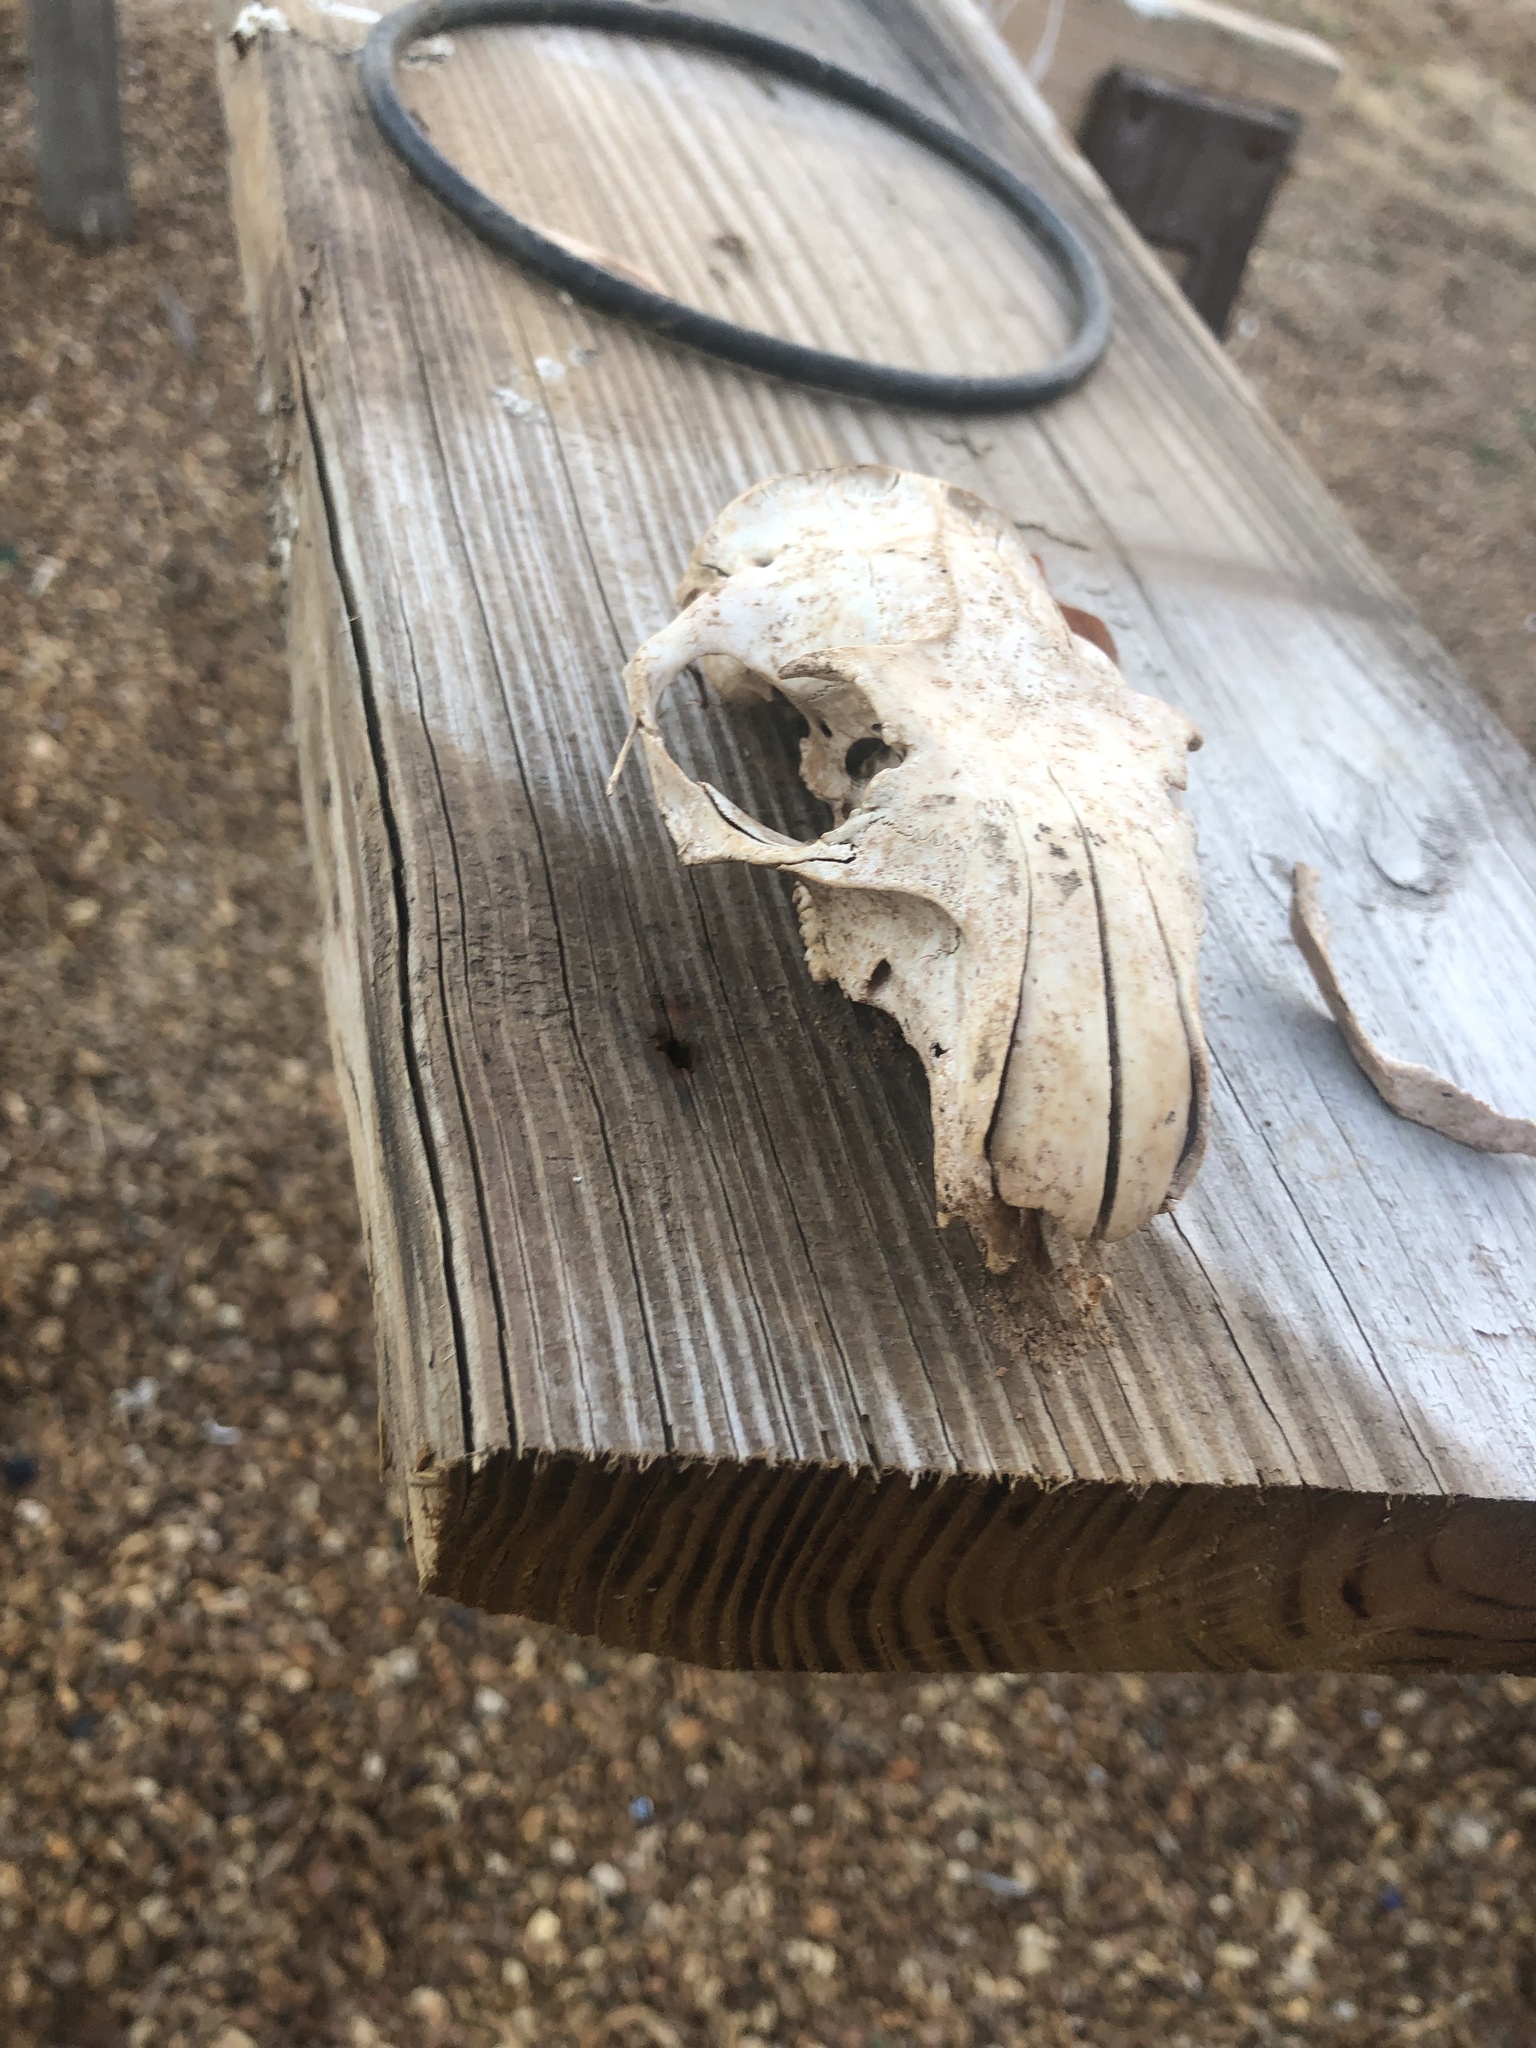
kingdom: Animalia
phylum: Chordata
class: Mammalia
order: Rodentia
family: Sciuridae
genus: Marmota
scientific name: Marmota monax
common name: Groundhog
